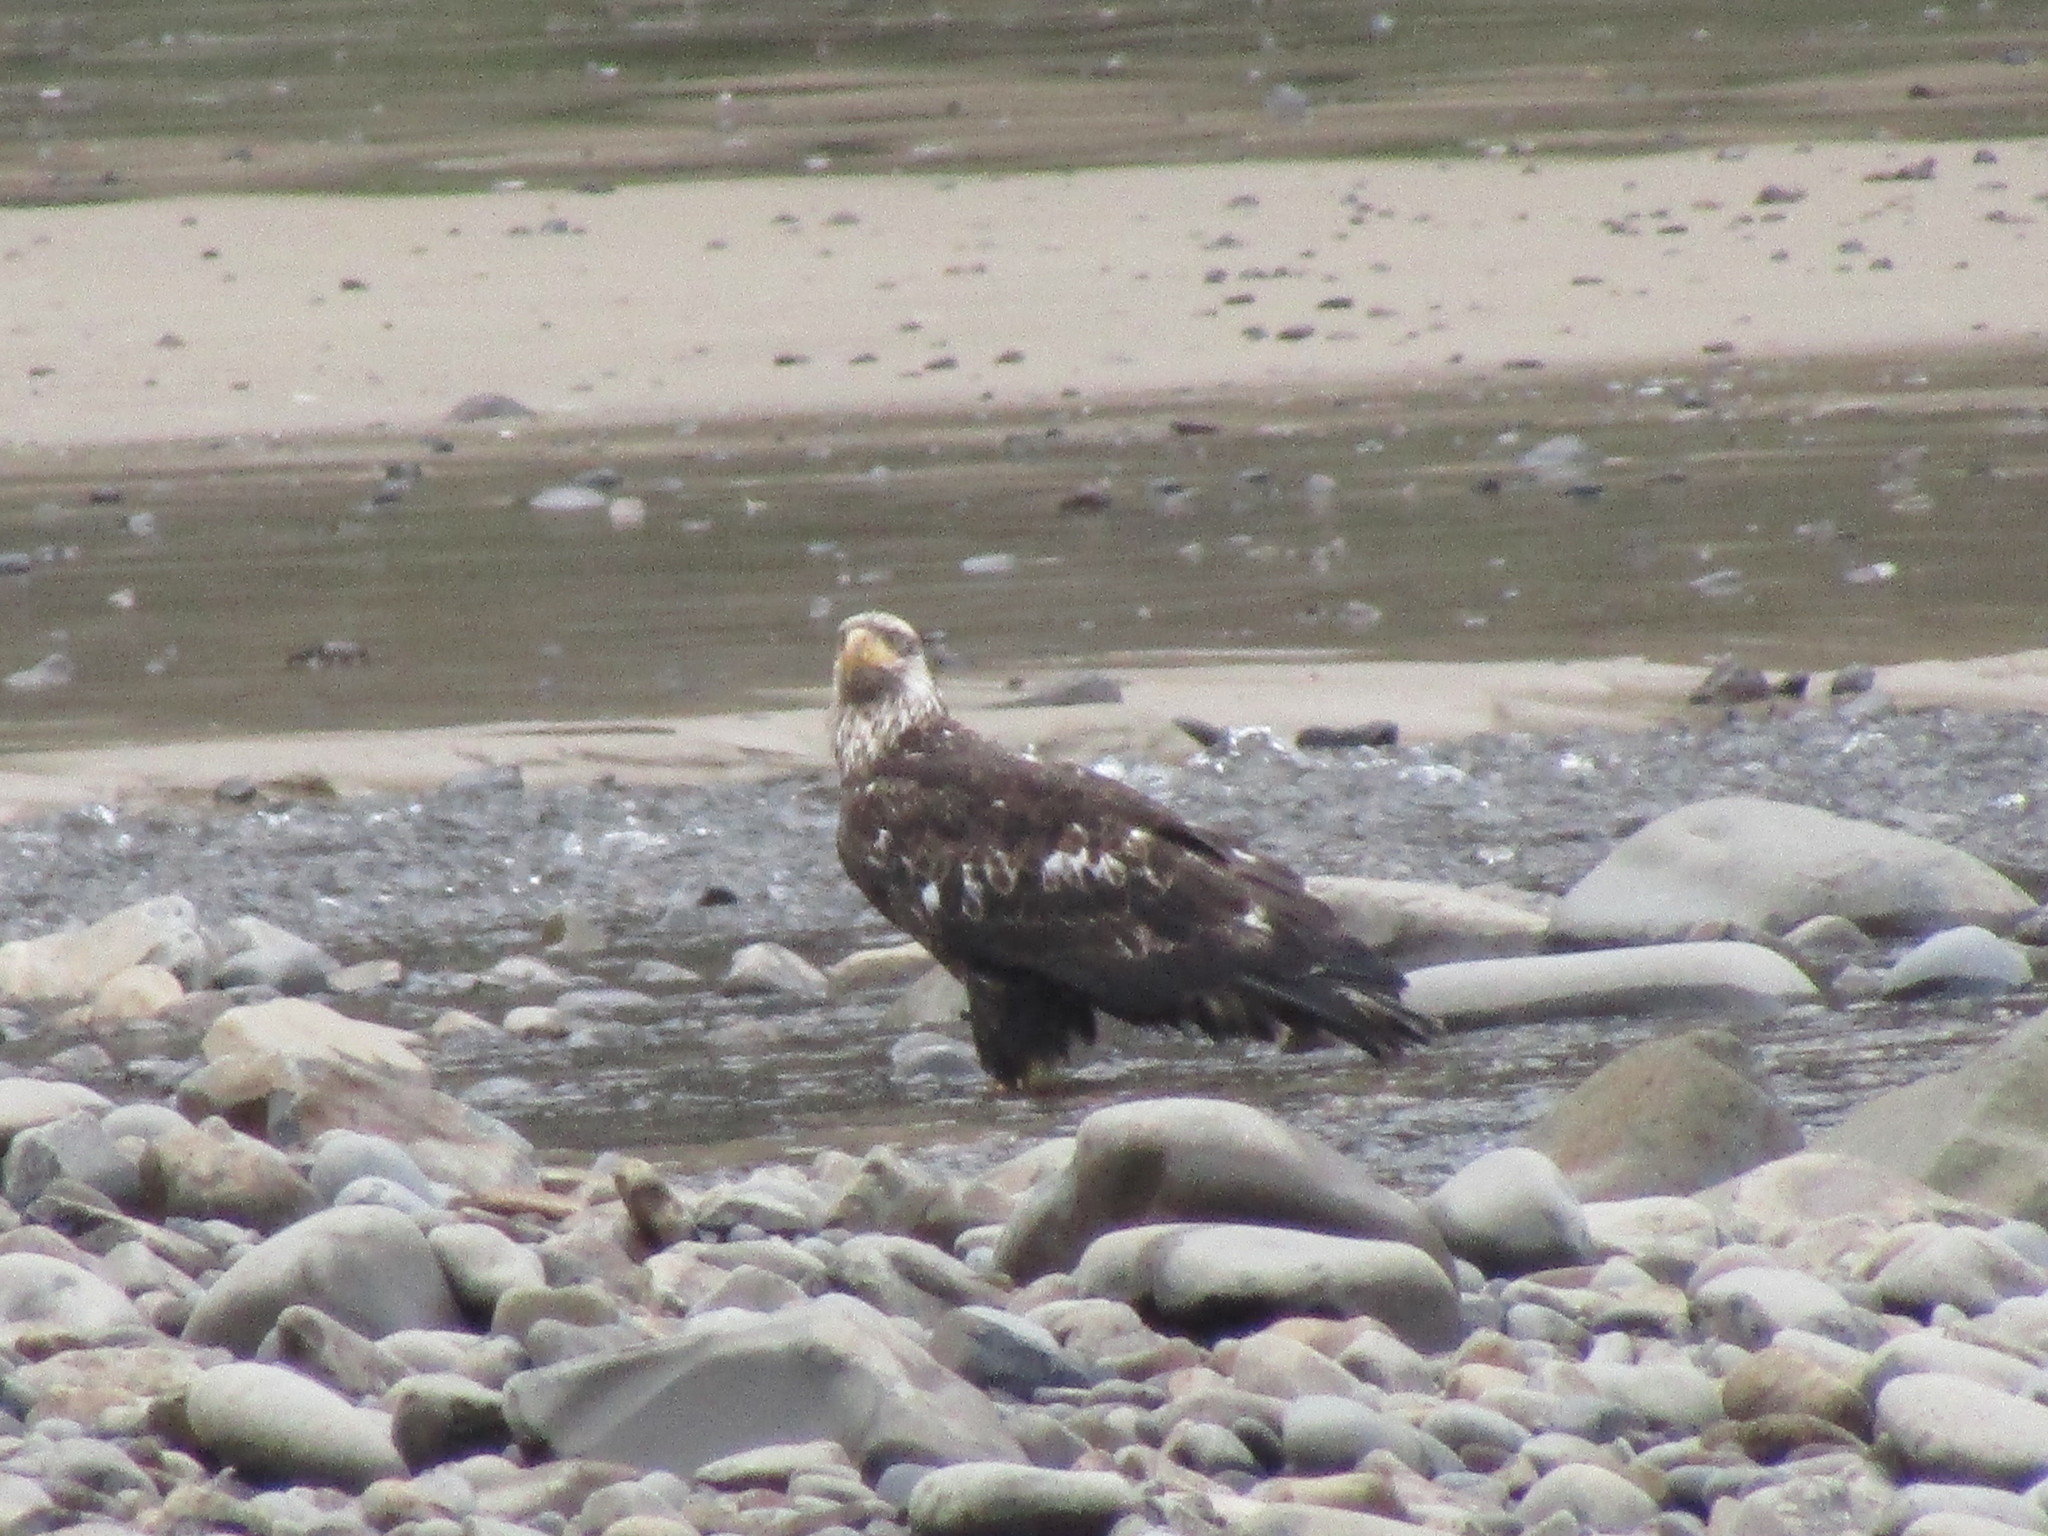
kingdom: Animalia
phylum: Chordata
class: Aves
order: Accipitriformes
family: Accipitridae
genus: Haliaeetus
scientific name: Haliaeetus leucocephalus
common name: Bald eagle
